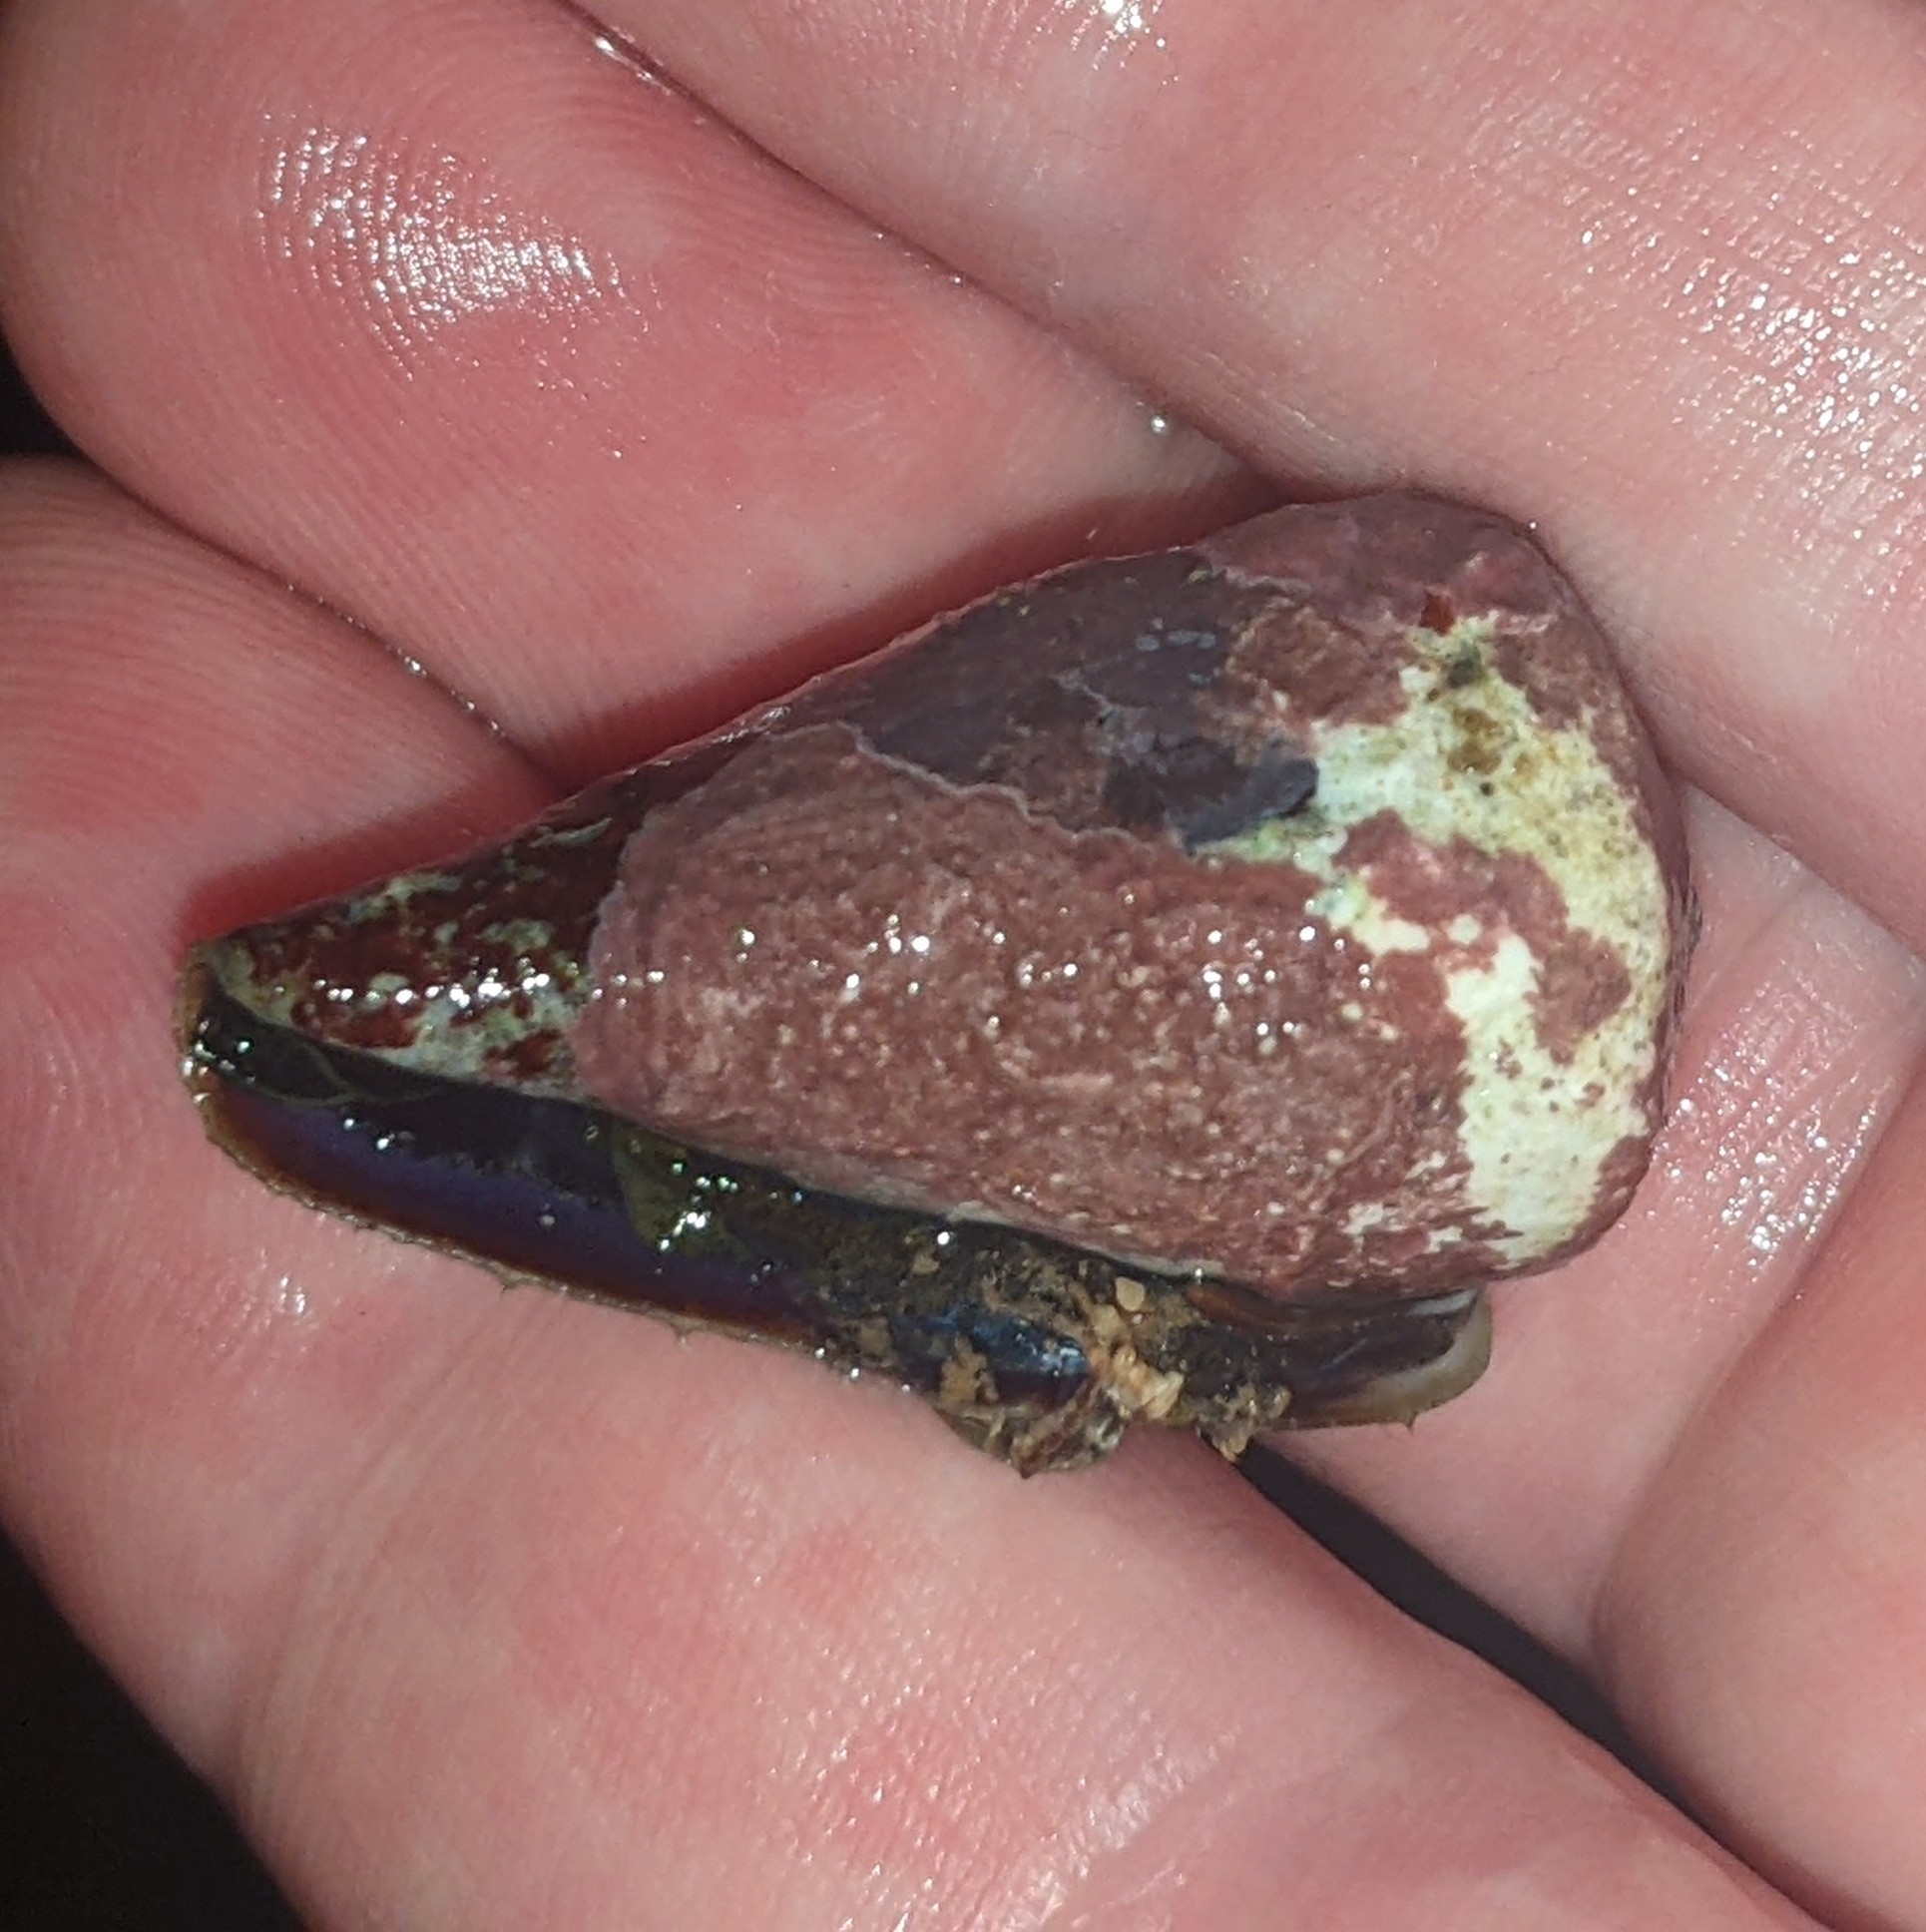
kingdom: Animalia
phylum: Mollusca
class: Gastropoda
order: Neogastropoda
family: Conidae
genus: Conus
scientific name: Conus rattus
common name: Rat cone
